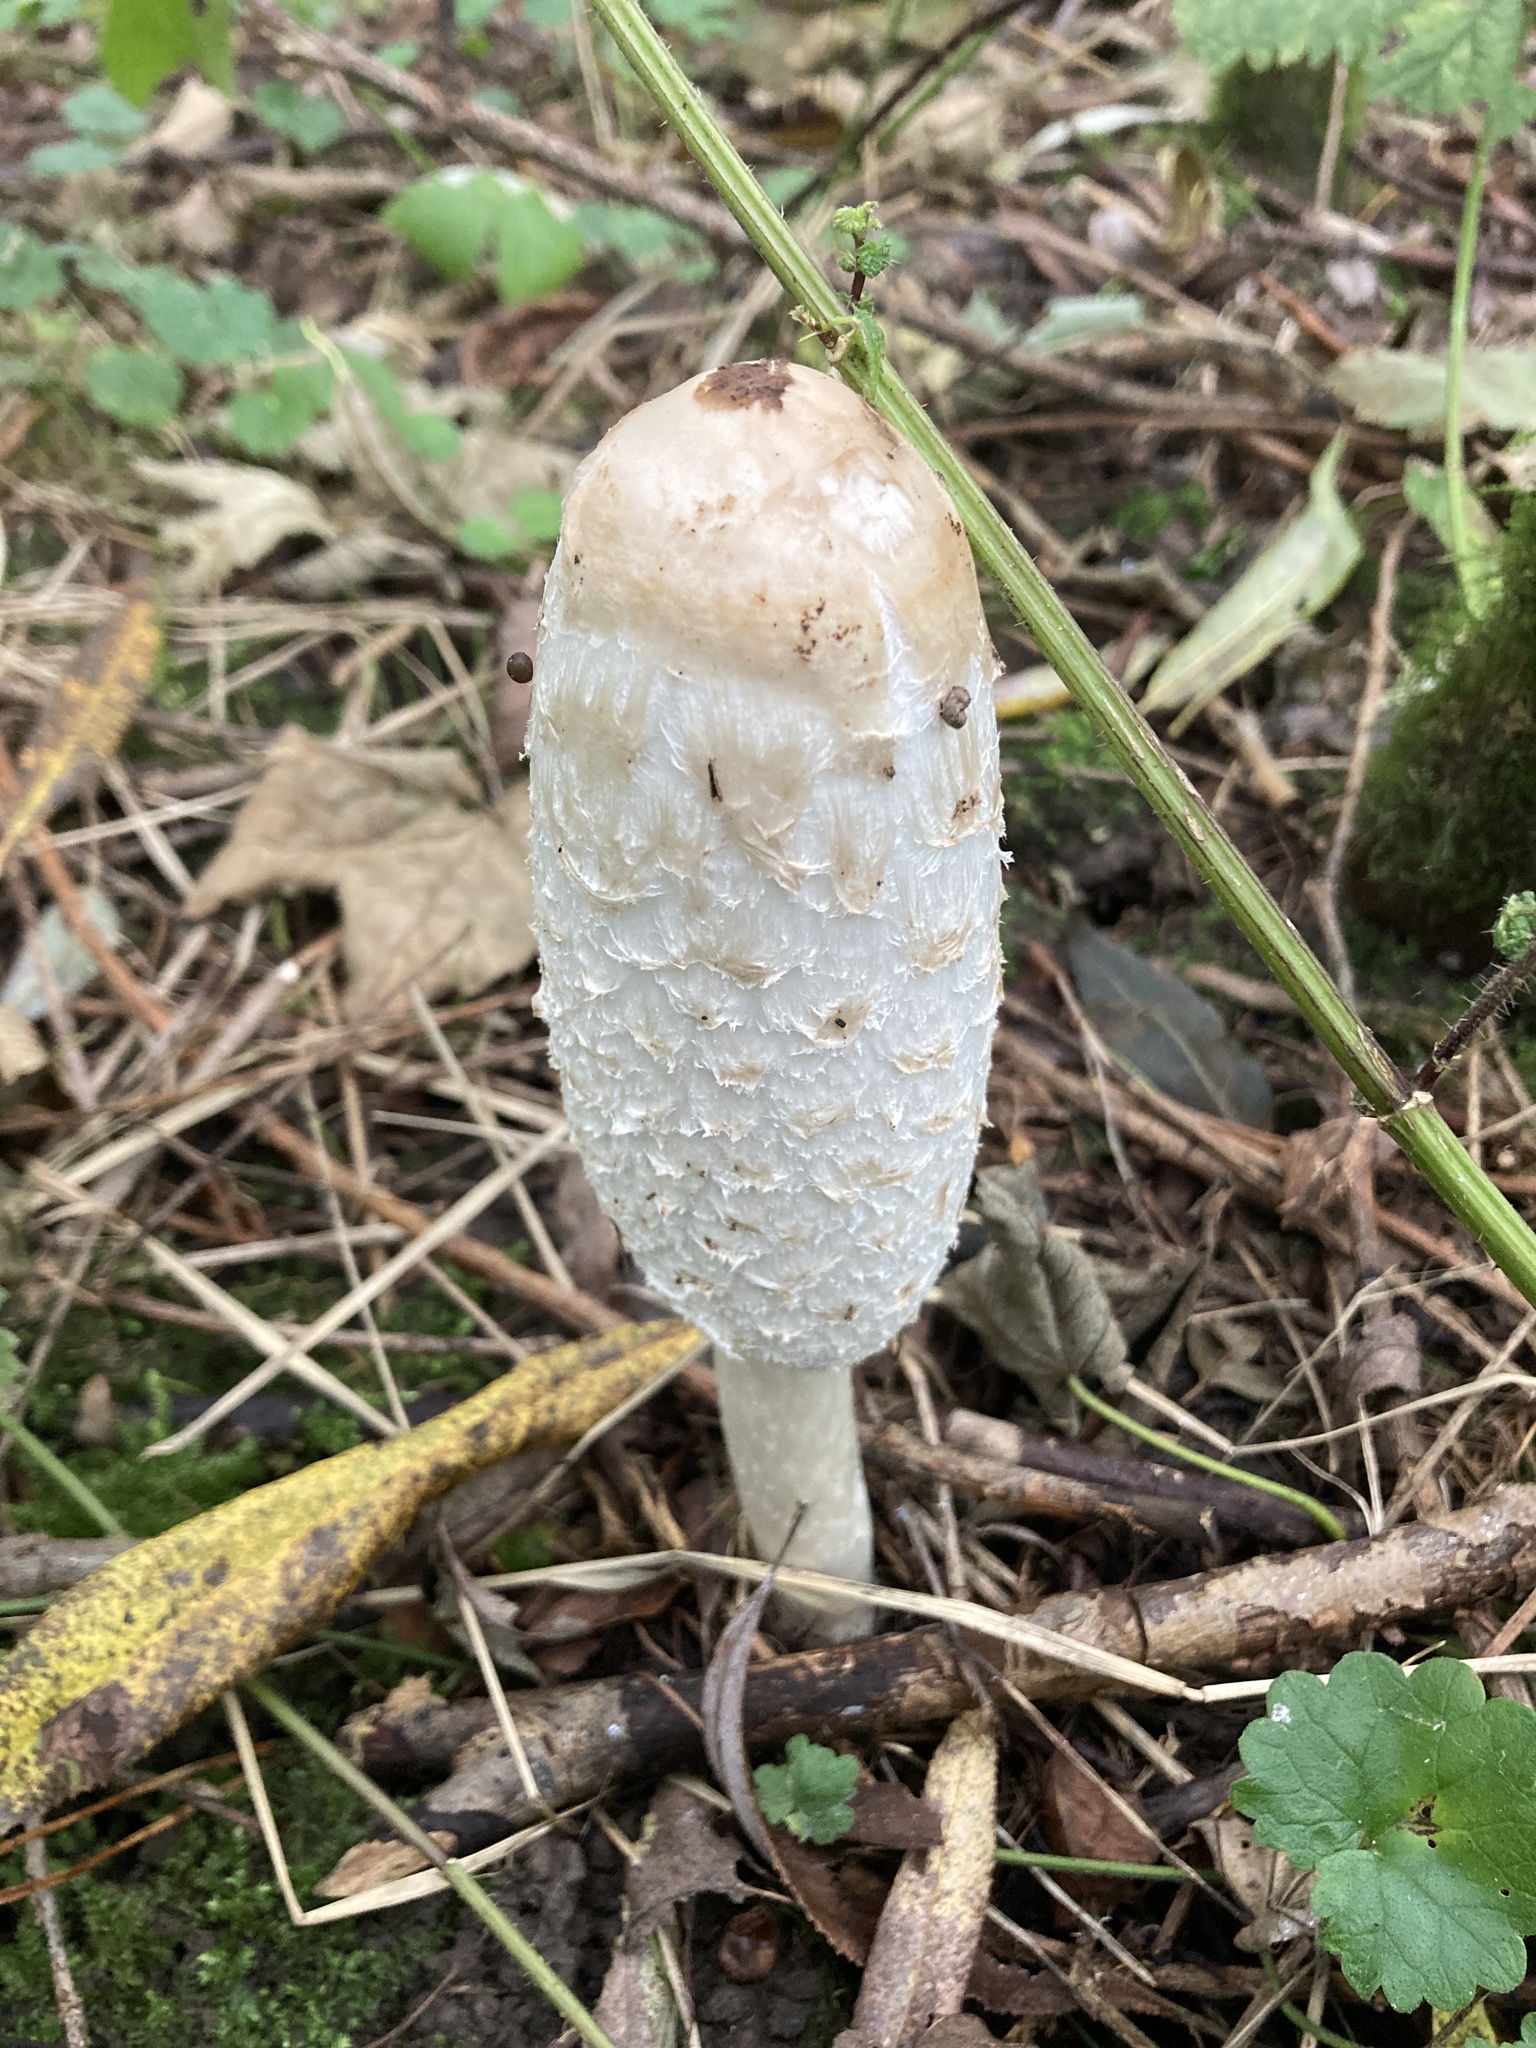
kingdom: Fungi
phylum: Basidiomycota
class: Agaricomycetes
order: Agaricales
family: Agaricaceae
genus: Coprinus
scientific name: Coprinus comatus
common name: Lawyer's wig
